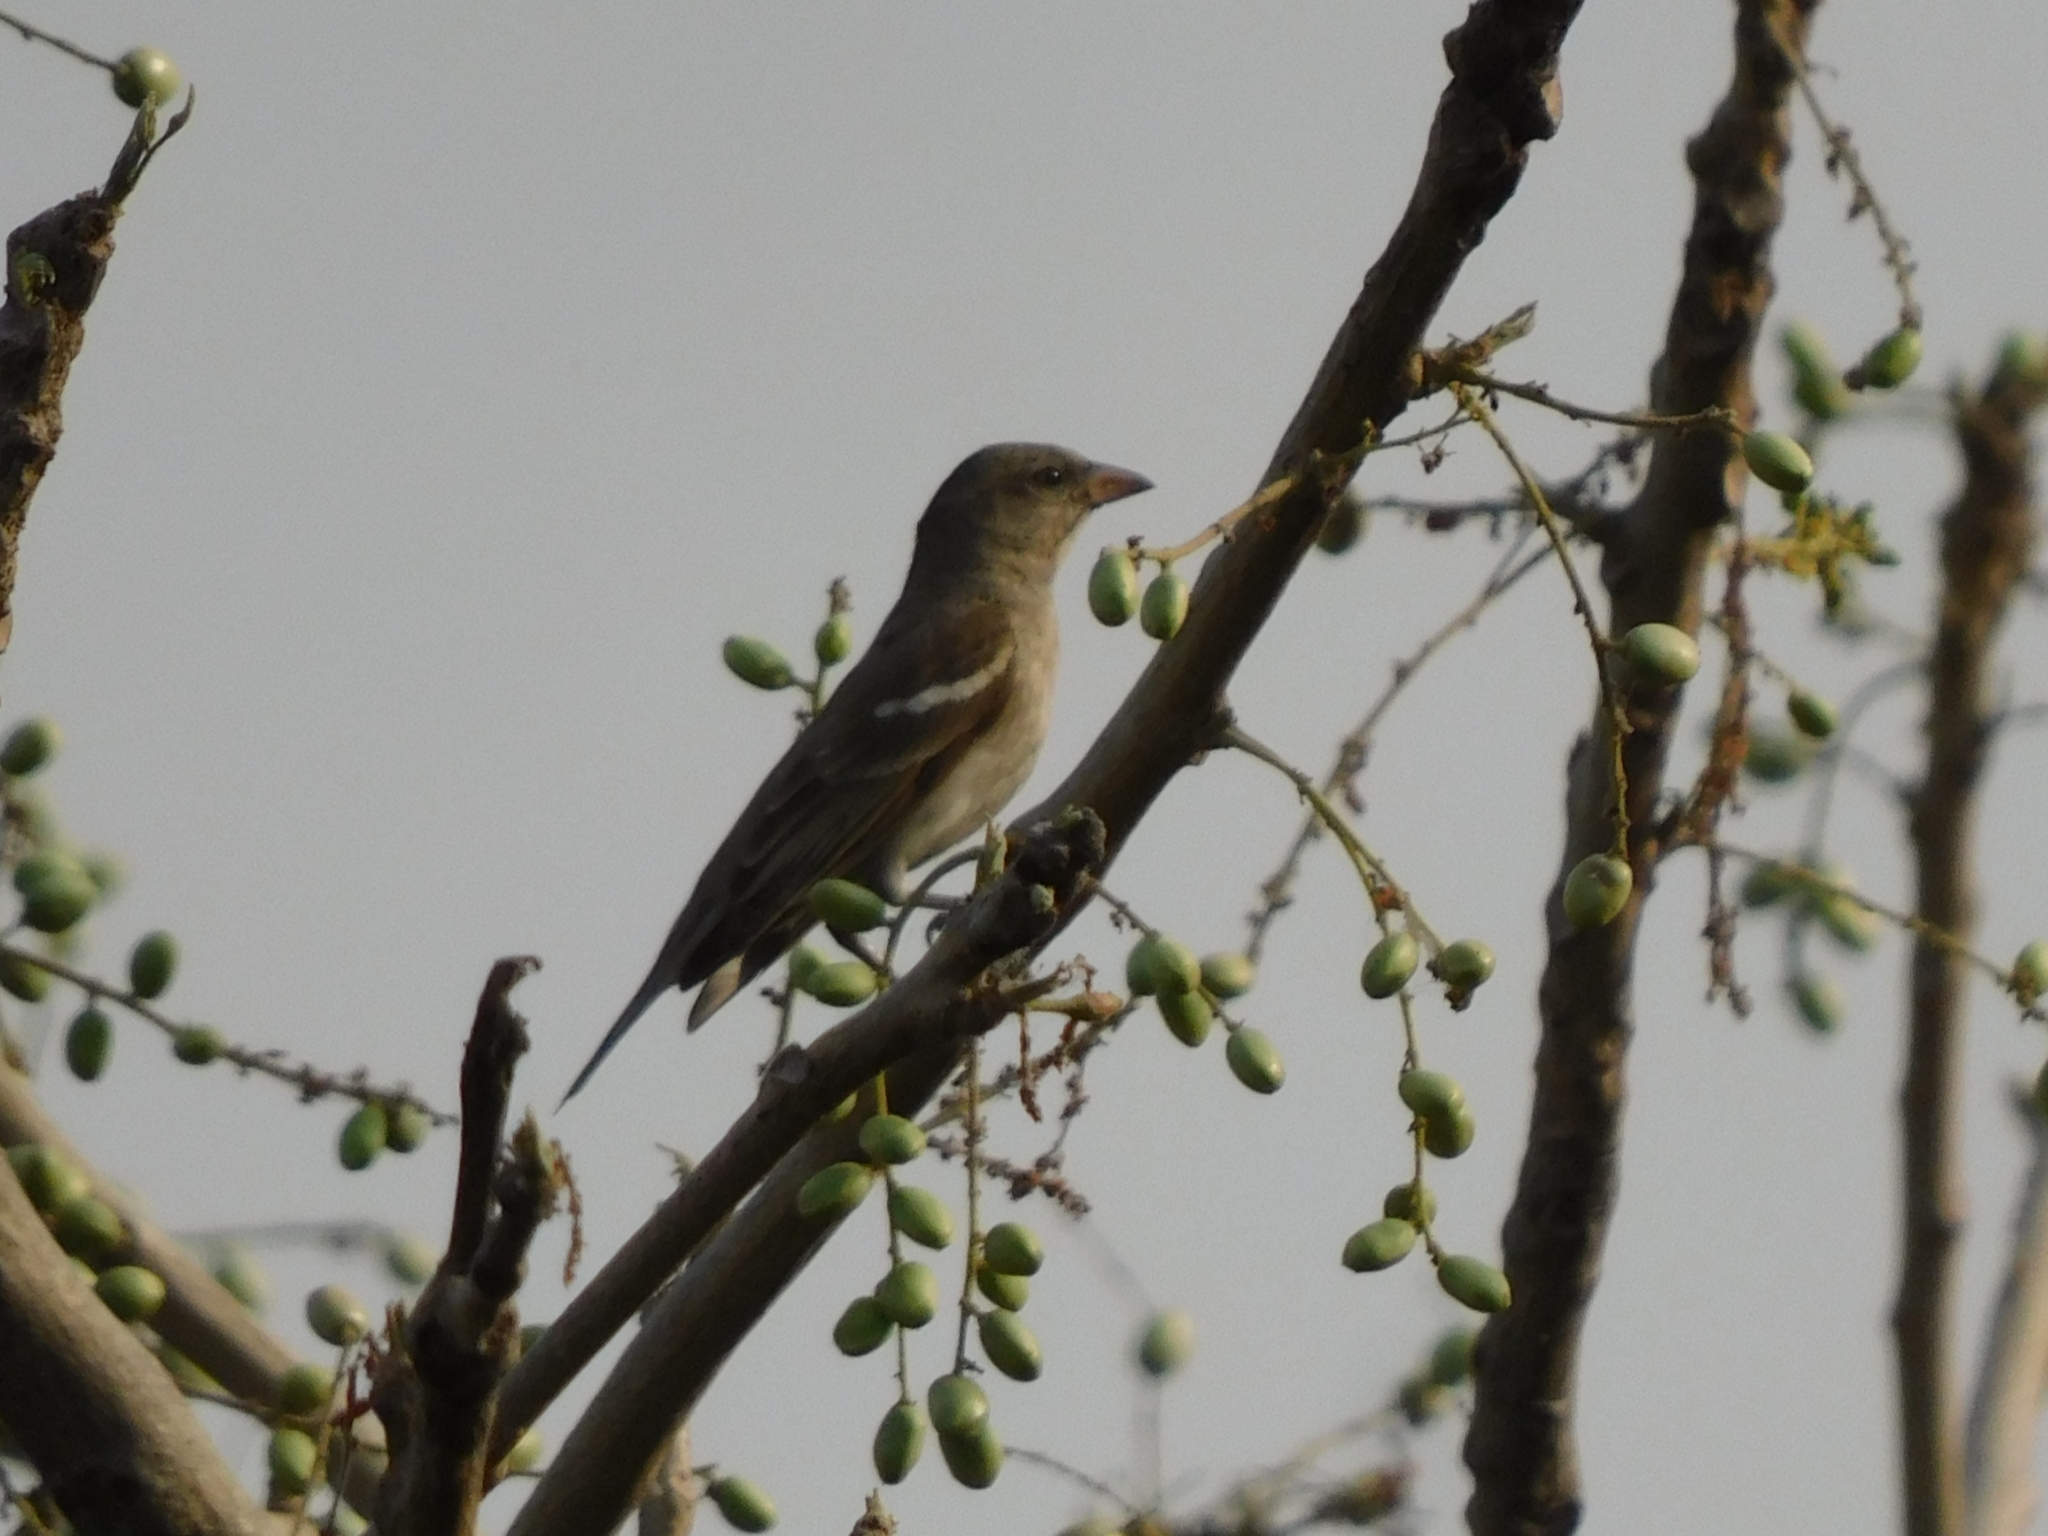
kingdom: Animalia
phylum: Chordata
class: Aves
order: Passeriformes
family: Passeridae
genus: Gymnoris
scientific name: Gymnoris xanthocollis
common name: Yellow-throated sparrow
